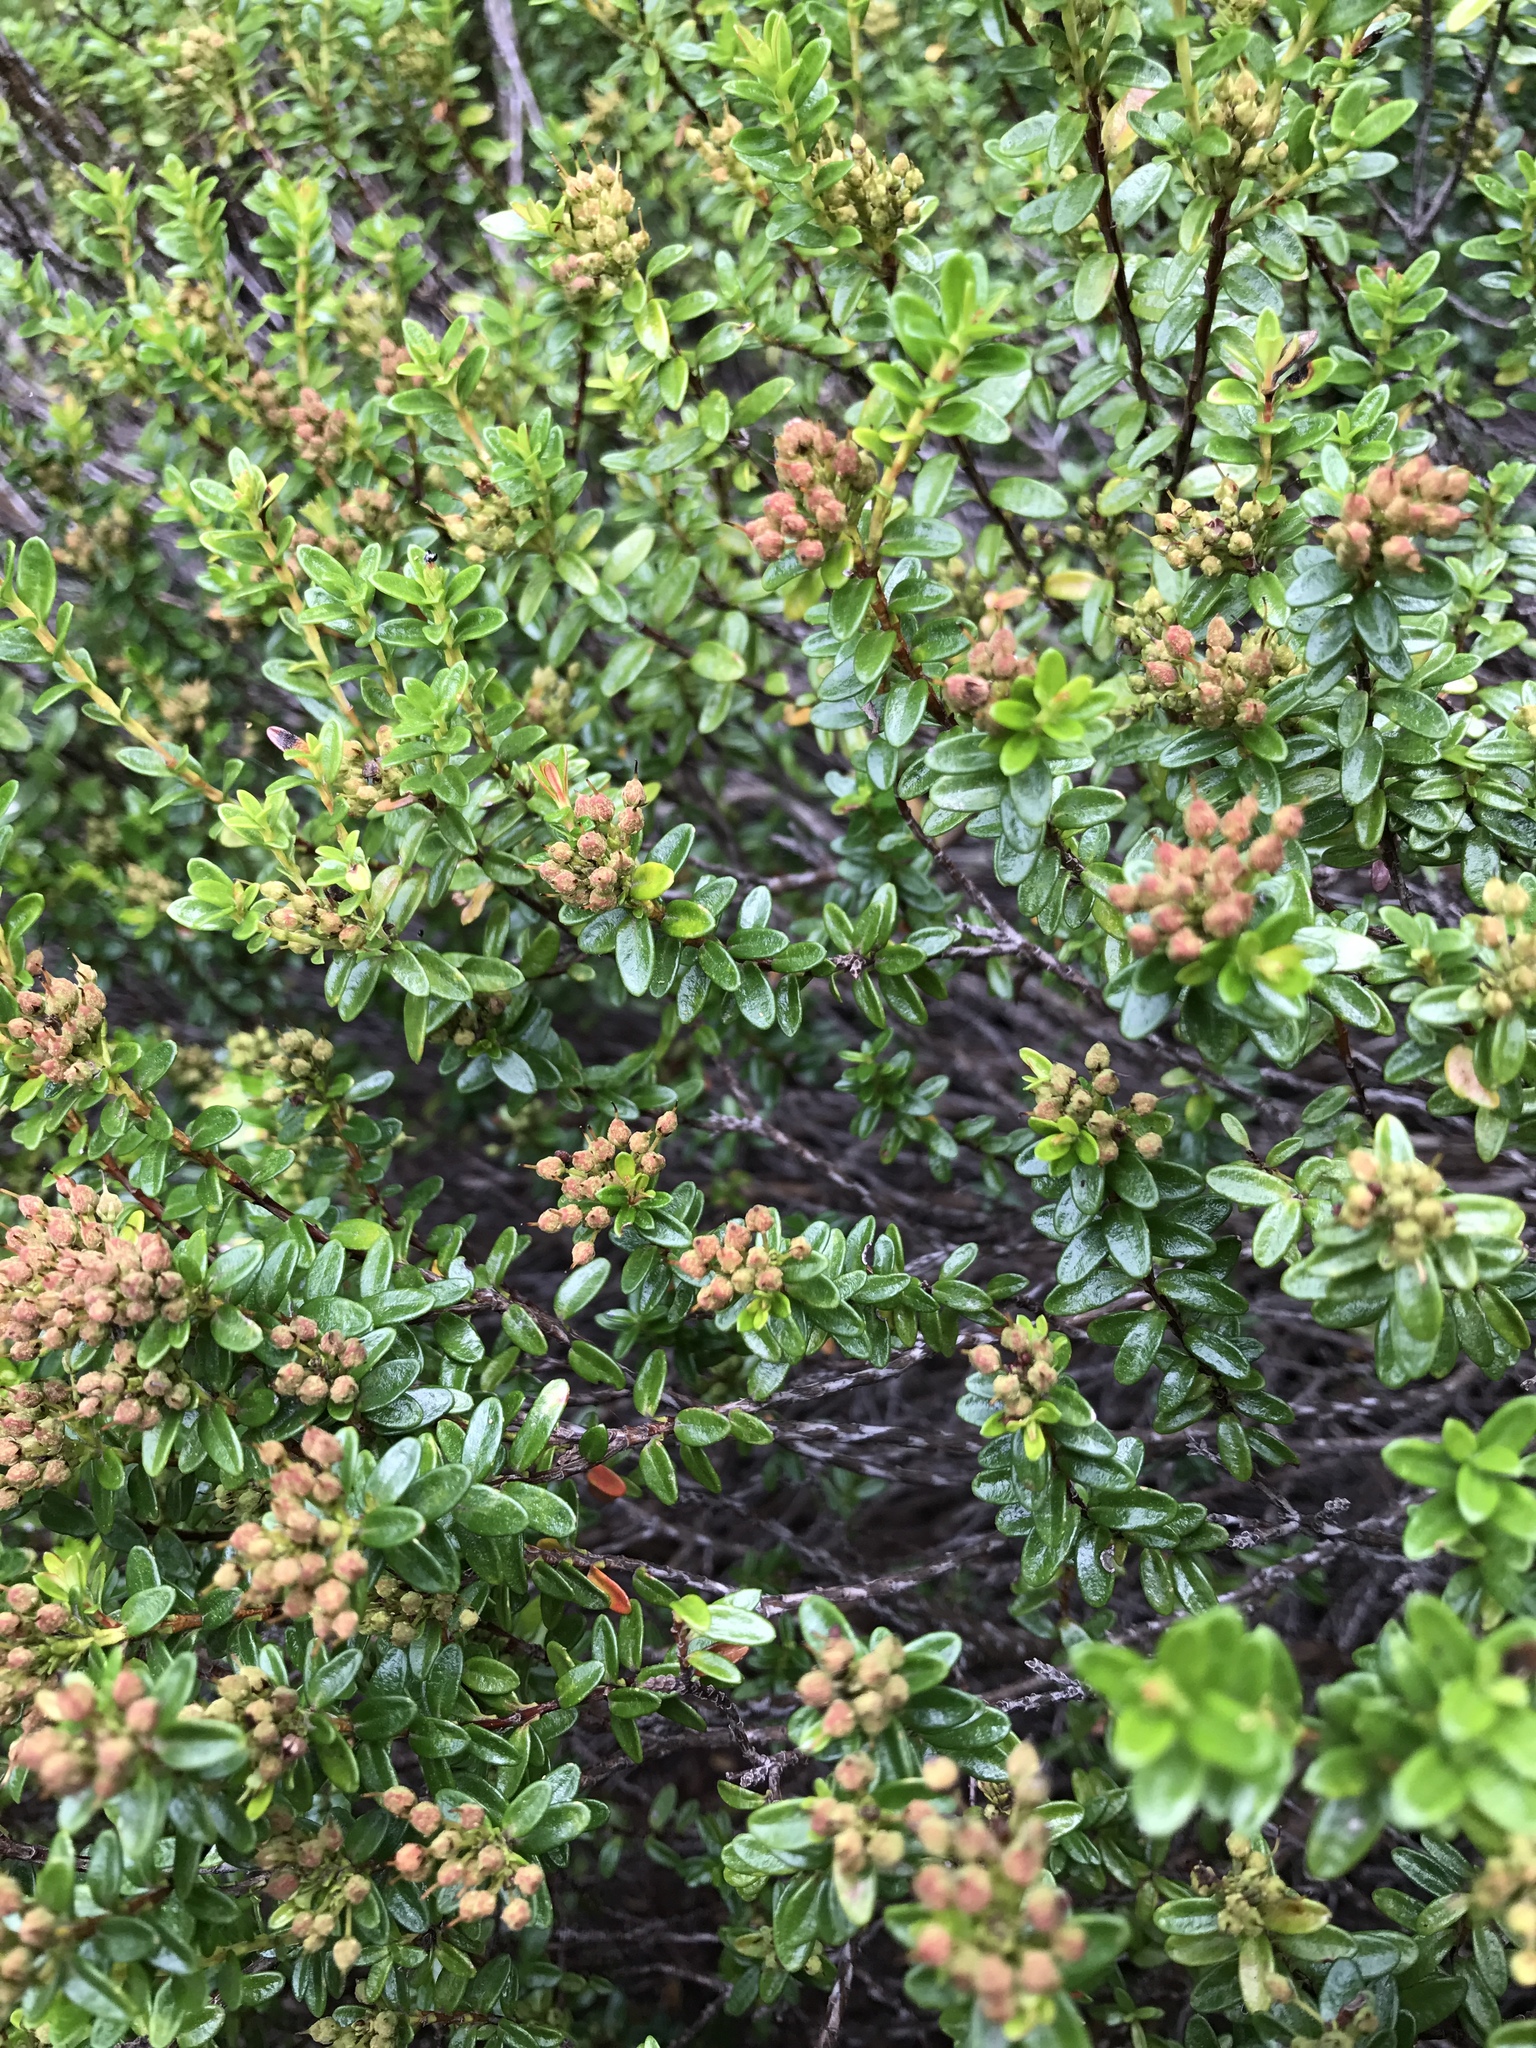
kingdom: Plantae
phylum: Tracheophyta
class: Magnoliopsida
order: Ericales
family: Ericaceae
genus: Kalmia
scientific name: Kalmia buxifolia
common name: Sandmyrtle
